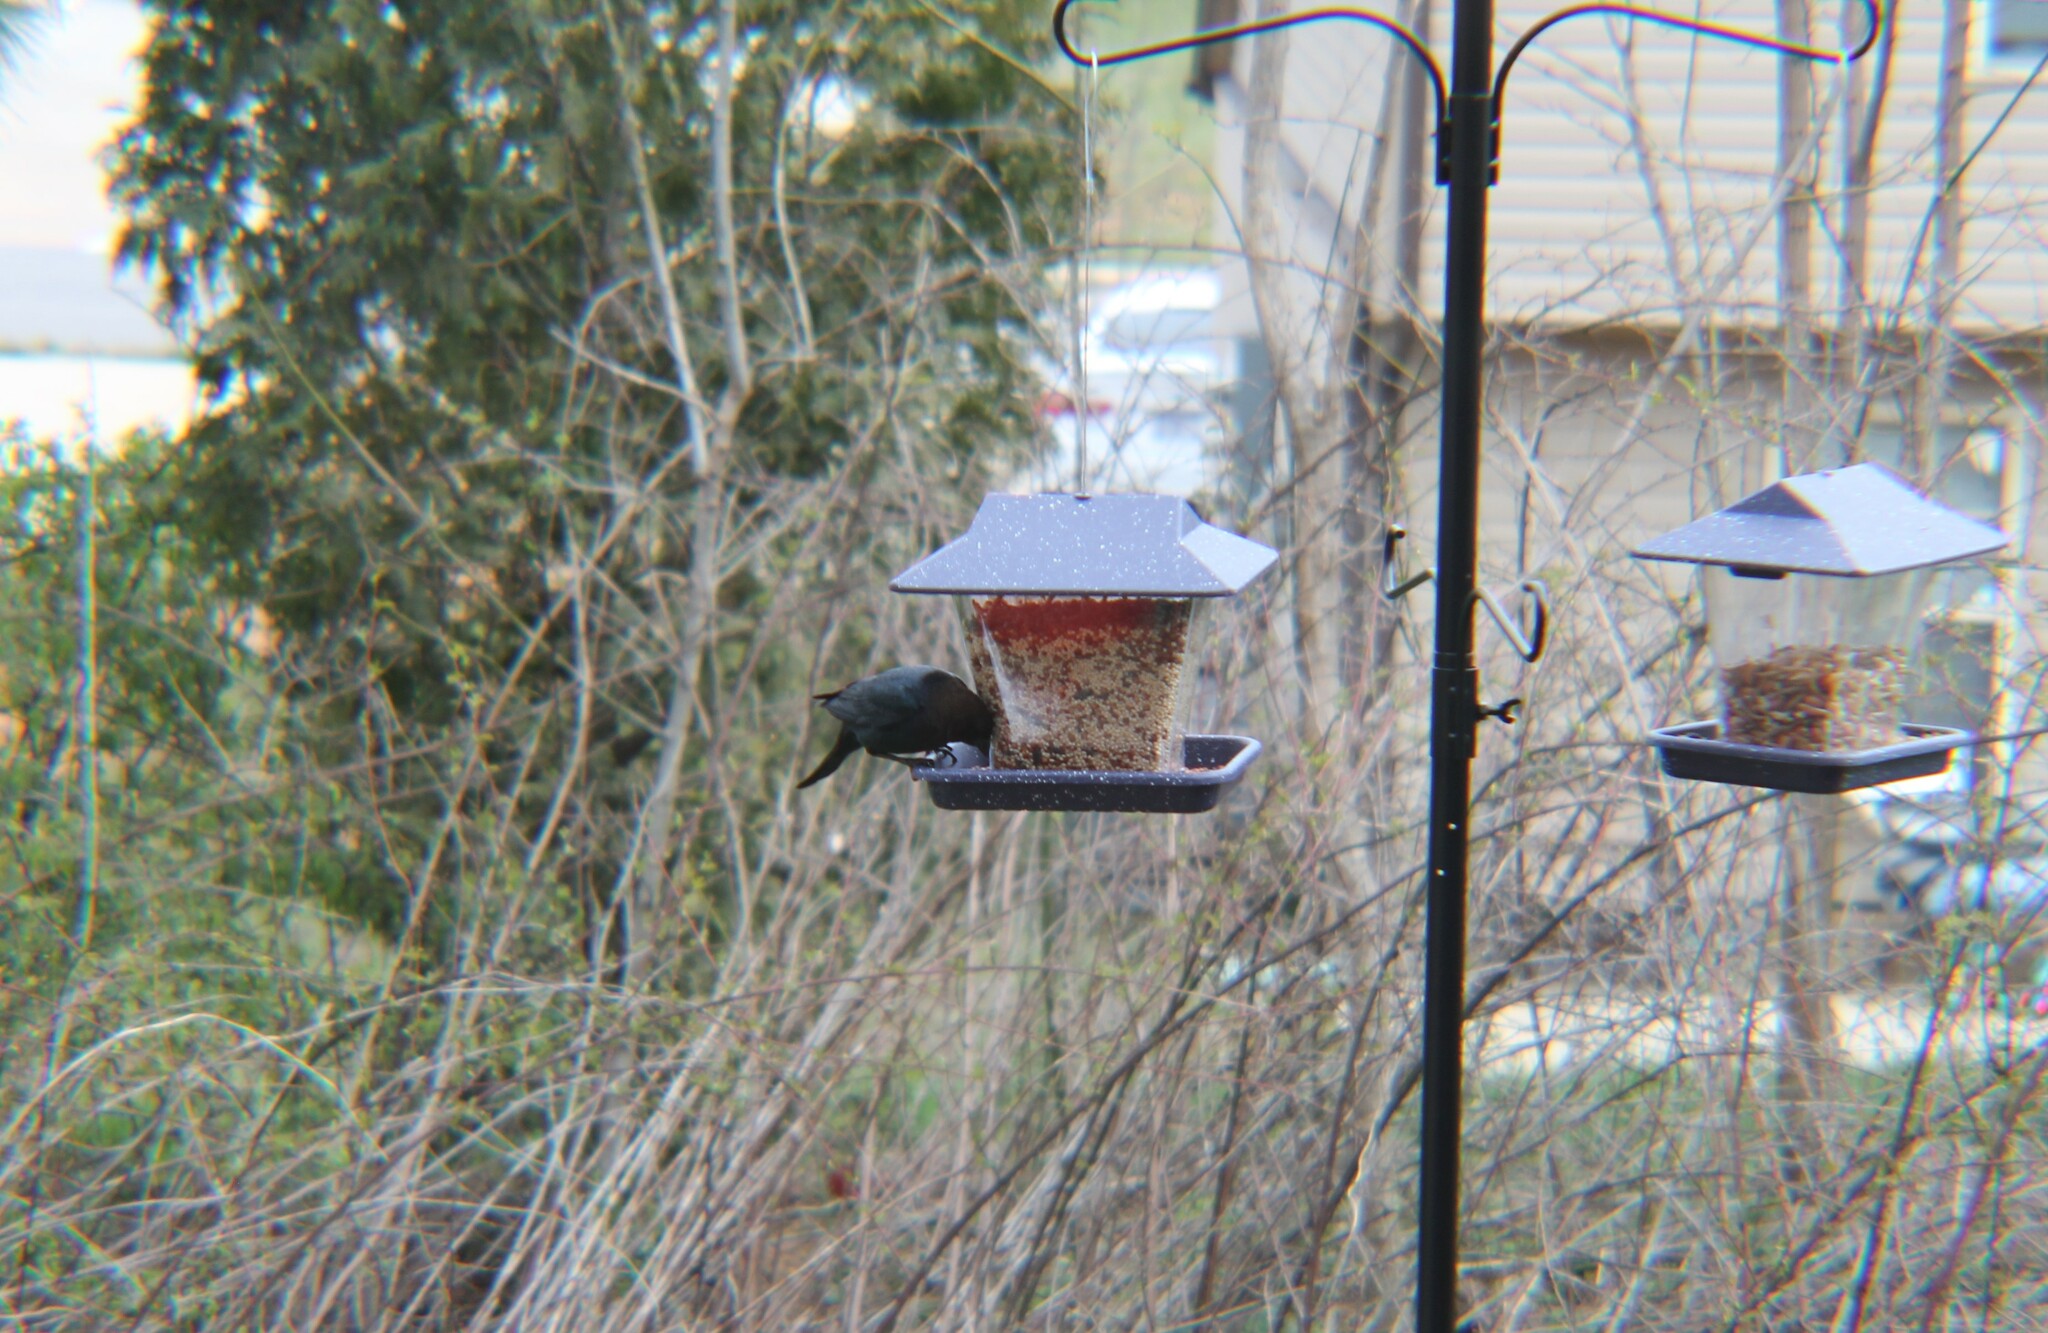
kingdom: Animalia
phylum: Chordata
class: Aves
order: Passeriformes
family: Icteridae
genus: Molothrus
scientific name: Molothrus ater
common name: Brown-headed cowbird
